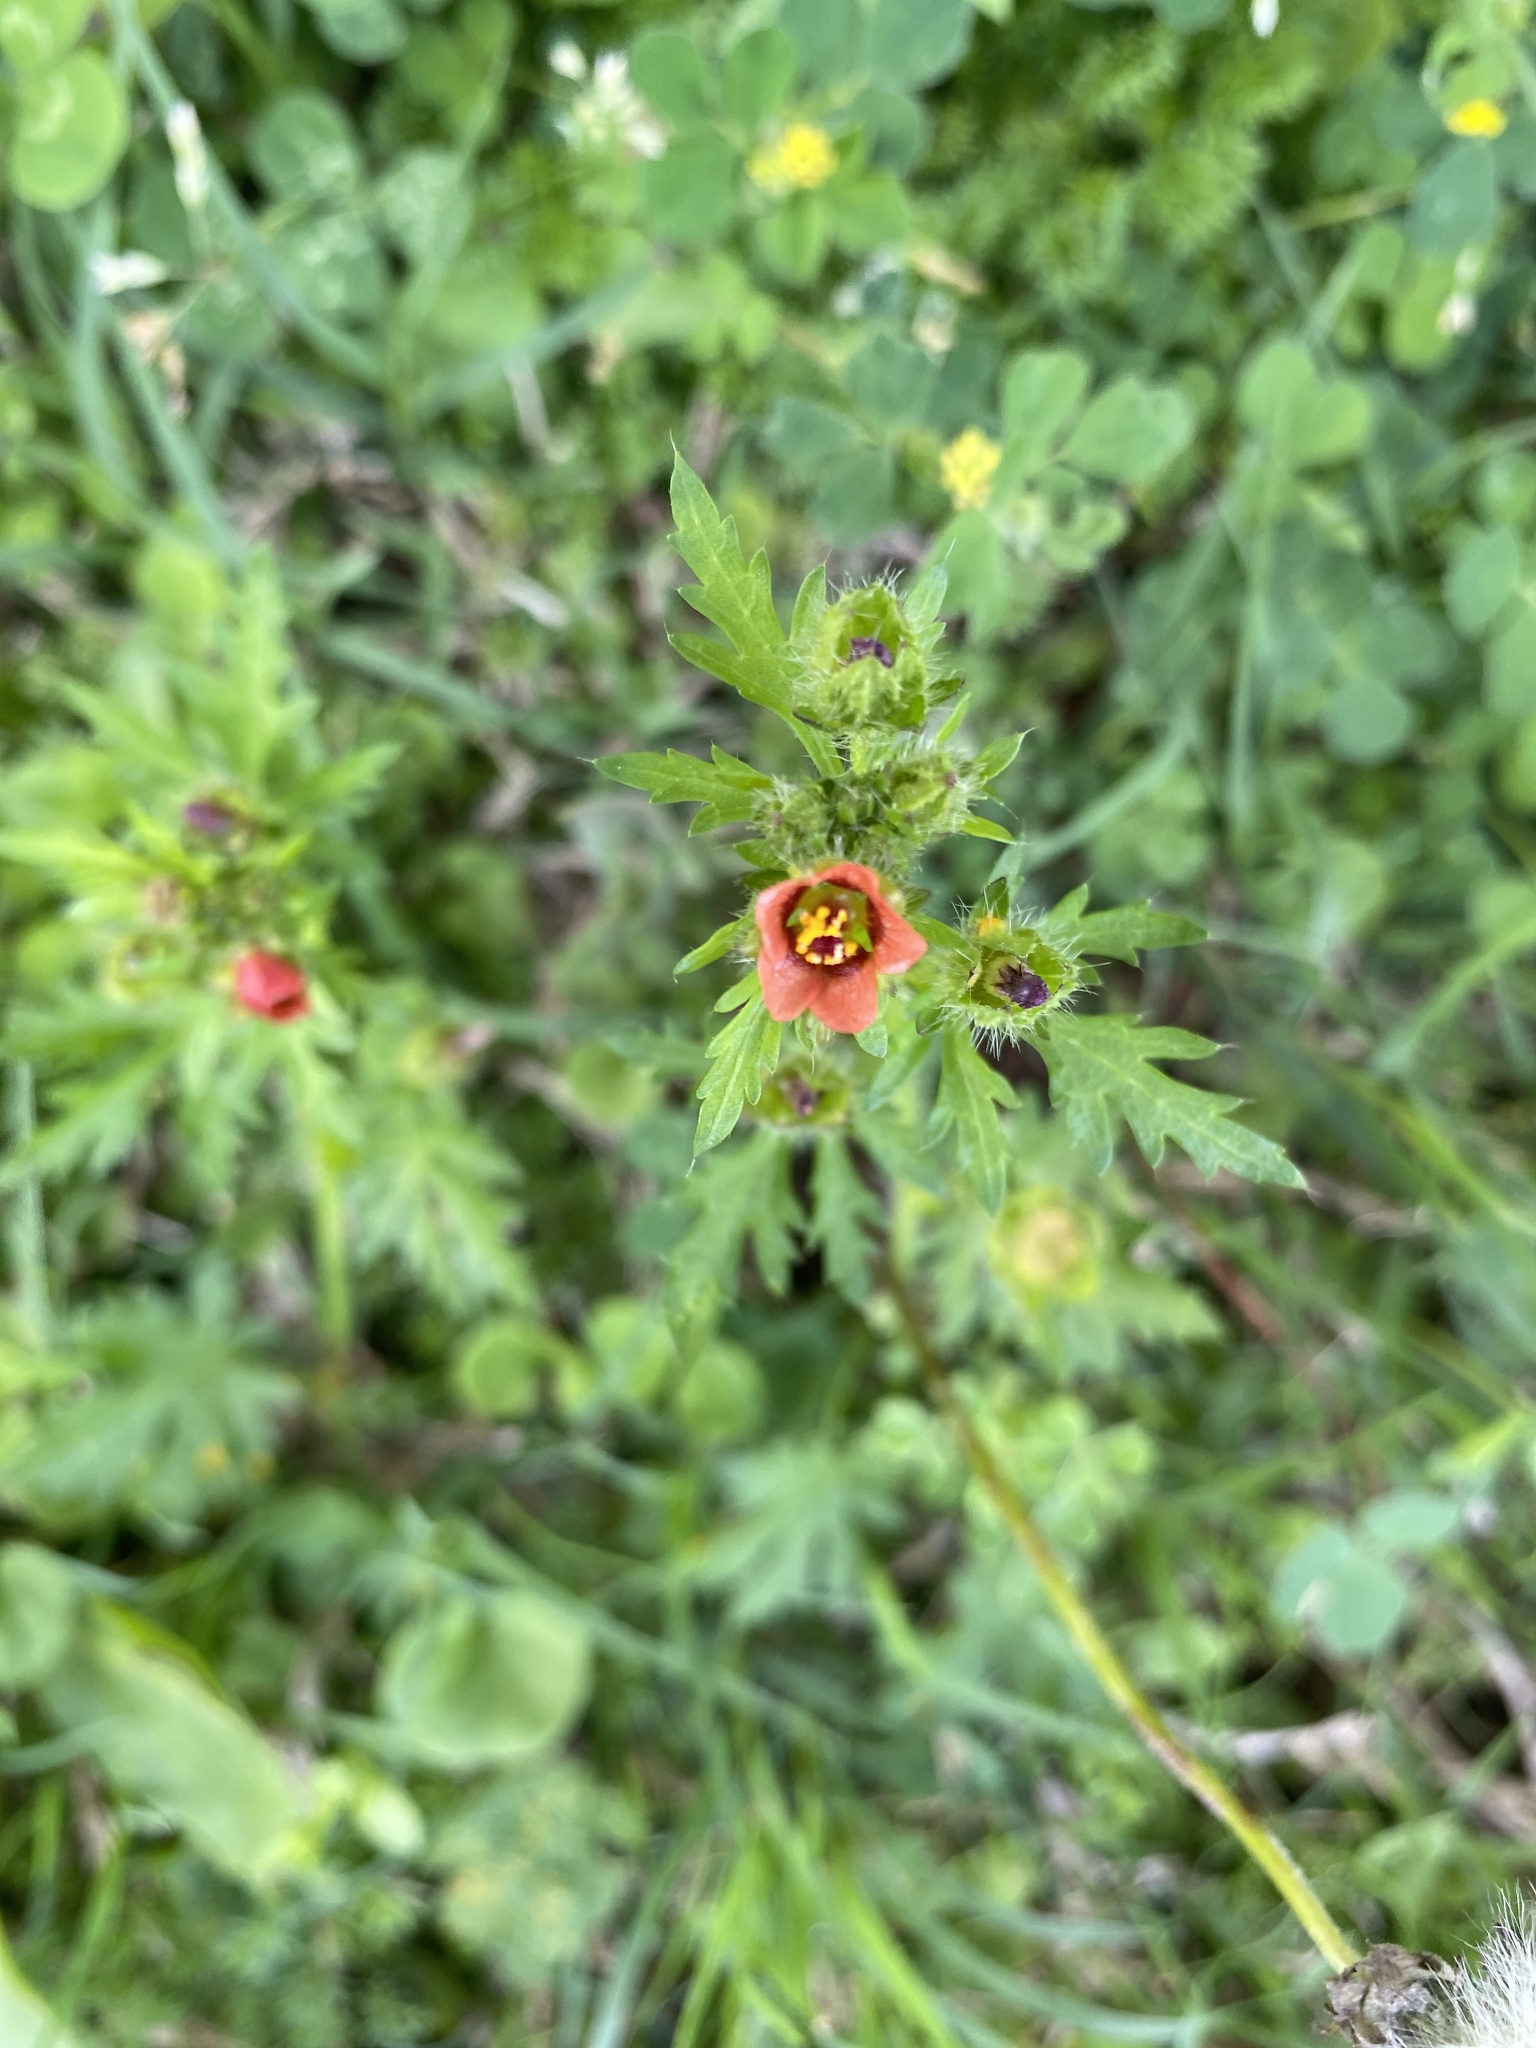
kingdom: Plantae
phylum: Tracheophyta
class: Magnoliopsida
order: Malvales
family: Malvaceae
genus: Modiola
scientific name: Modiola caroliniana
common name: Carolina bristlemallow
